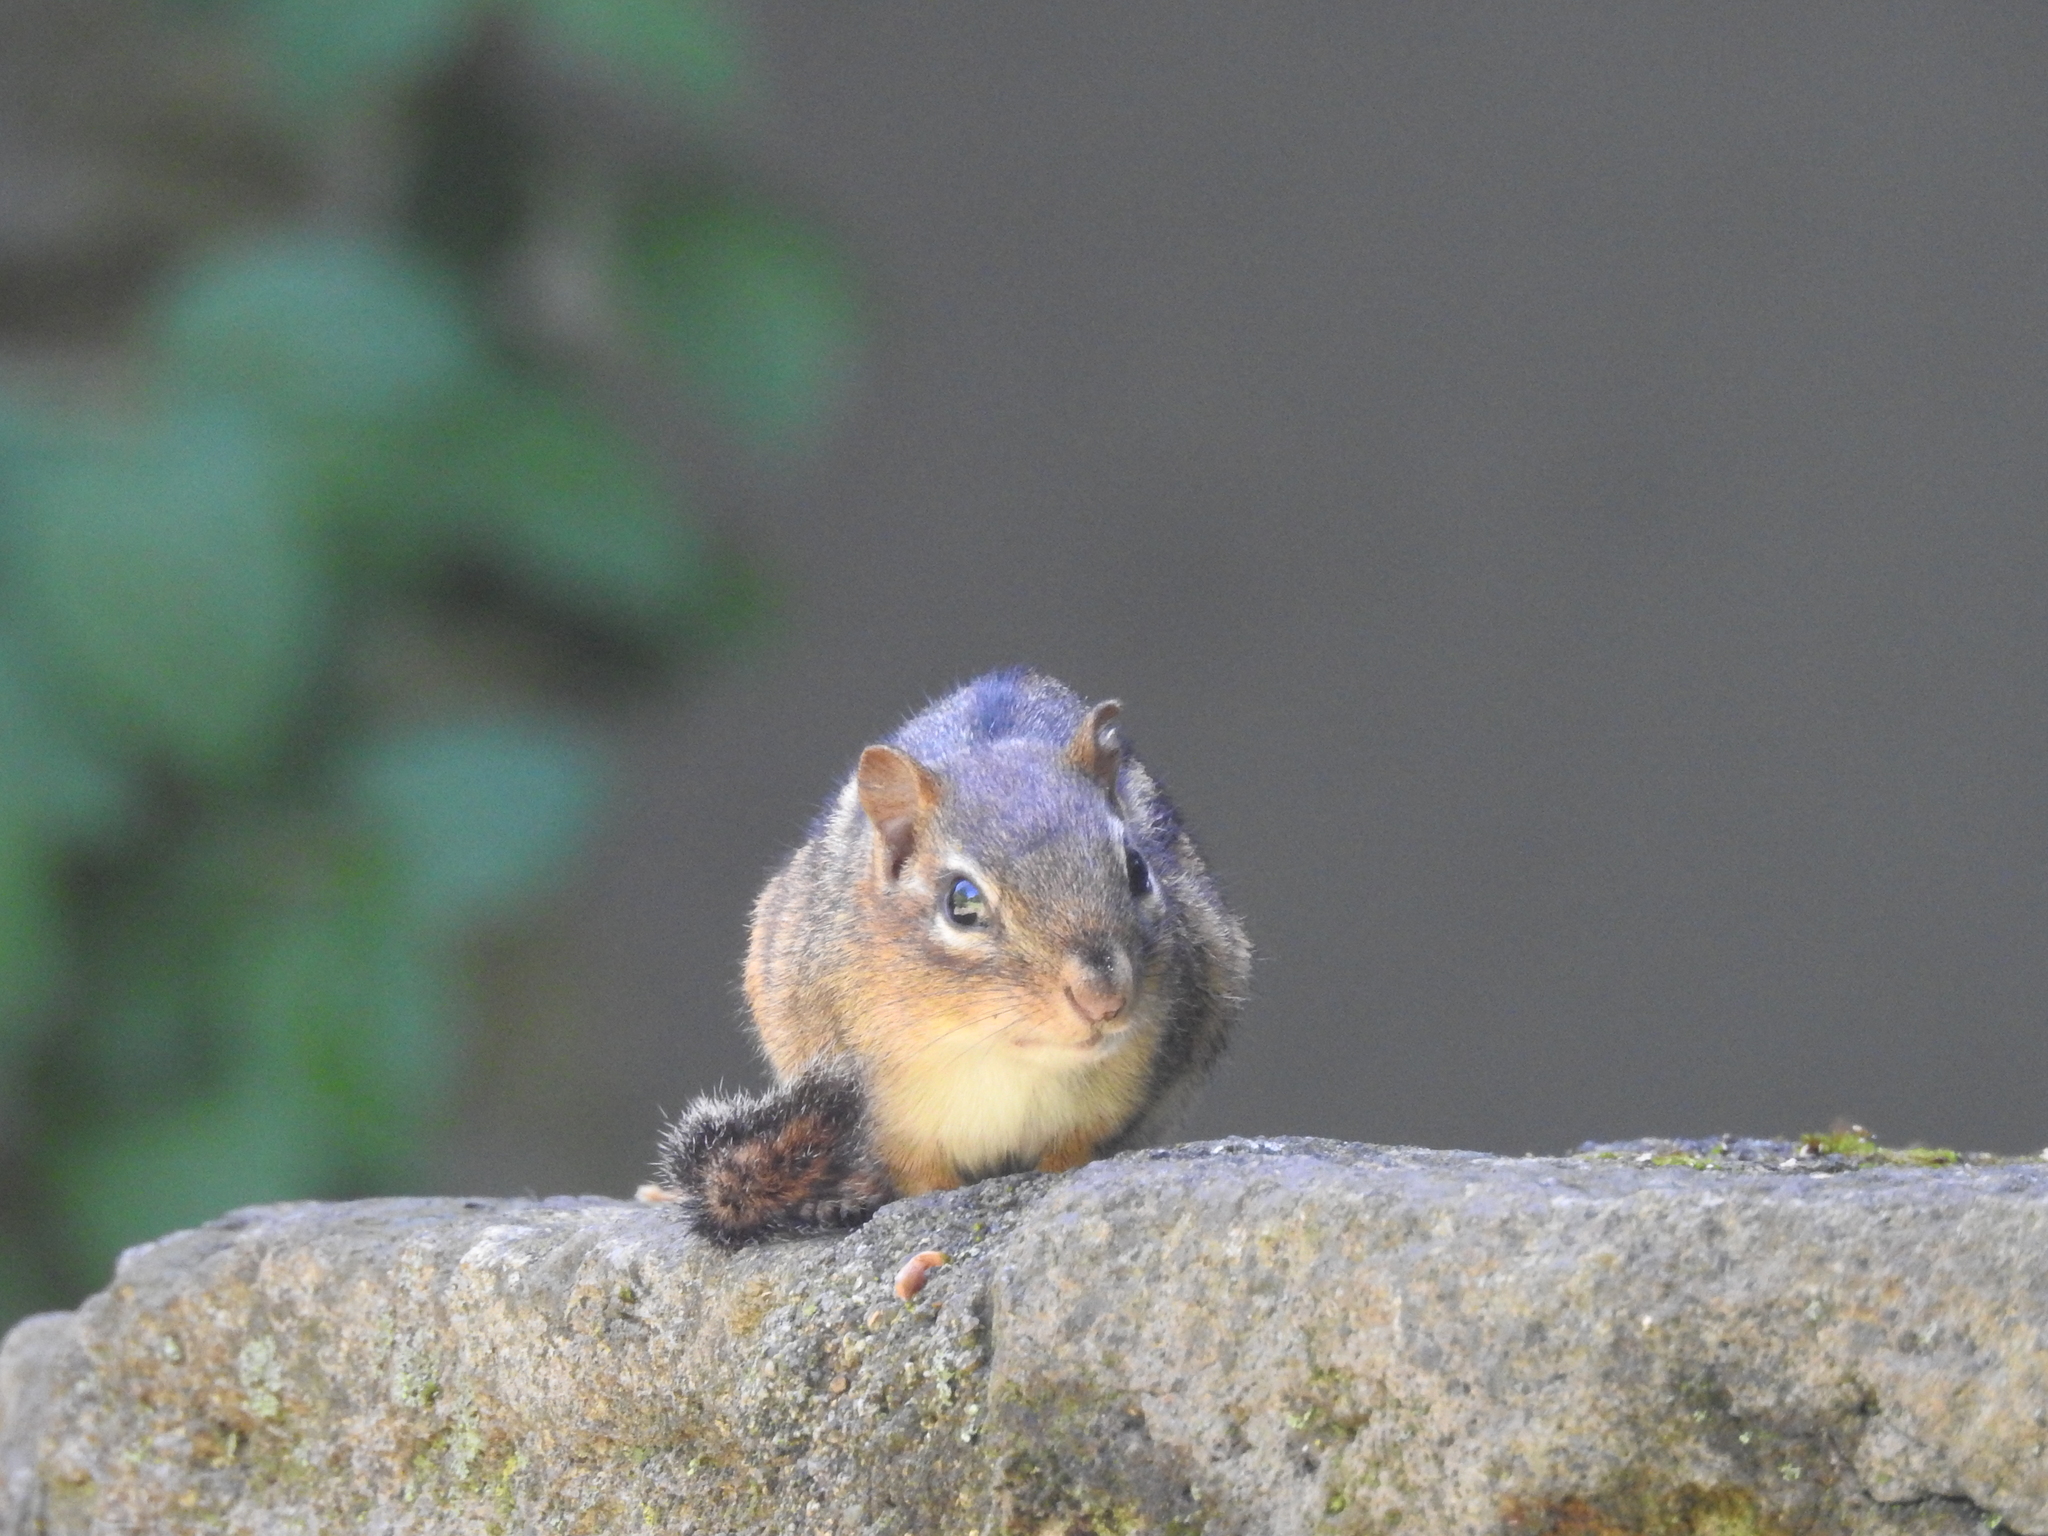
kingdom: Animalia
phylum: Chordata
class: Mammalia
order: Rodentia
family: Sciuridae
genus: Tamias
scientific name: Tamias striatus
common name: Eastern chipmunk
